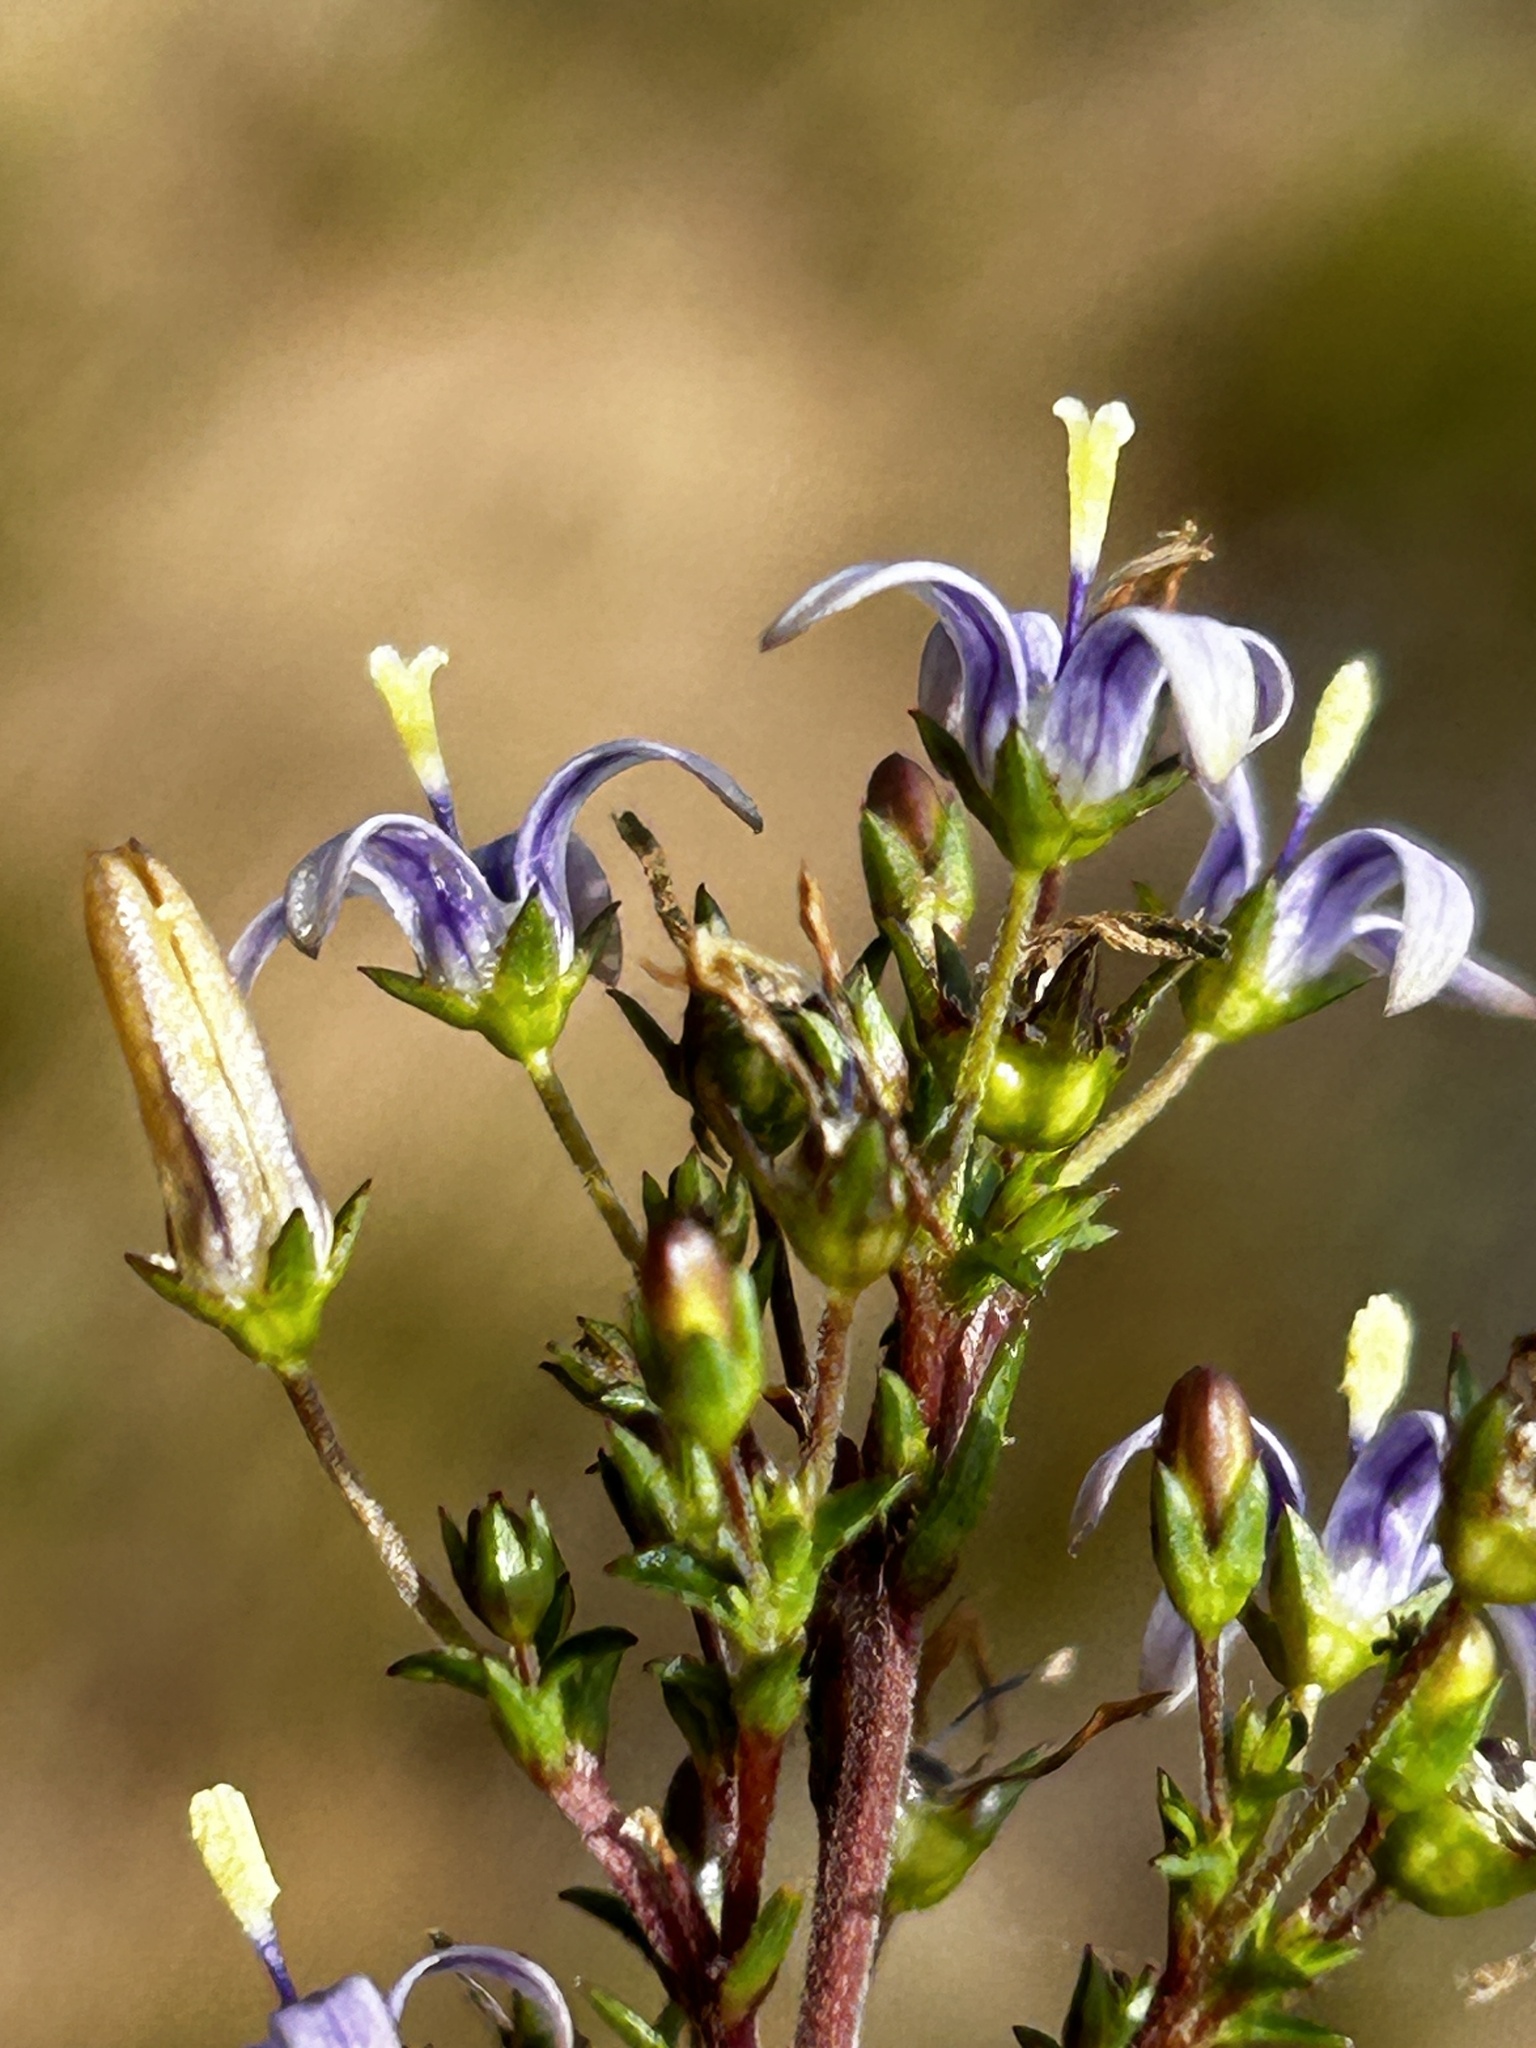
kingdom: Plantae
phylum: Tracheophyta
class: Magnoliopsida
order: Asterales
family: Campanulaceae
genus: Wahlenbergia
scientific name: Wahlenbergia subulata
